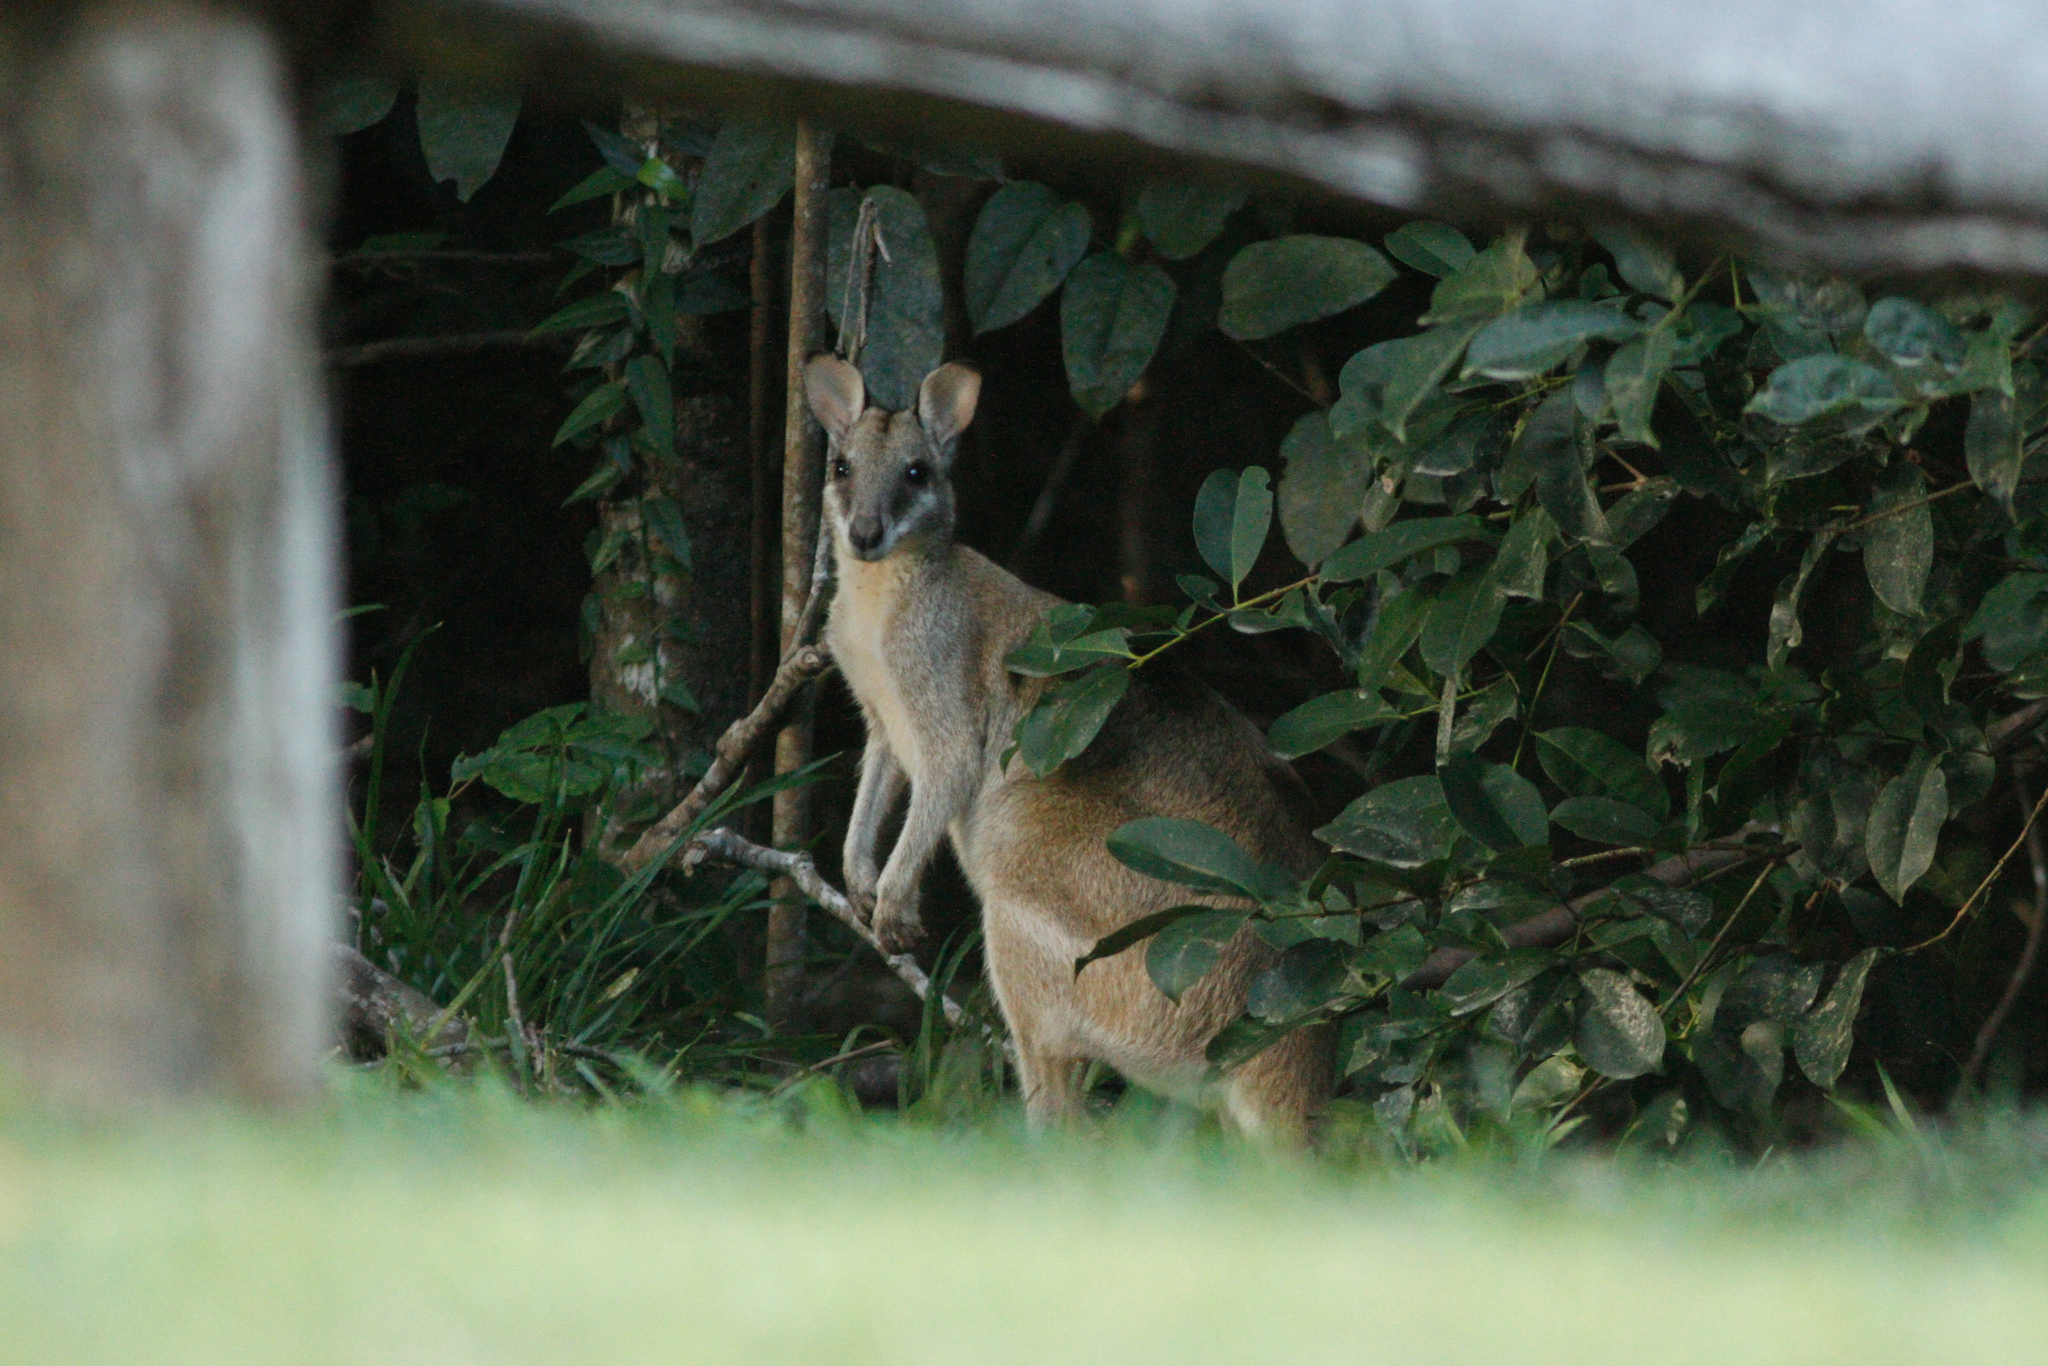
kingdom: Animalia
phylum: Chordata
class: Mammalia
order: Diprotodontia
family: Macropodidae
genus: Macropus
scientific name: Macropus agilis
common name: Agile wallaby
